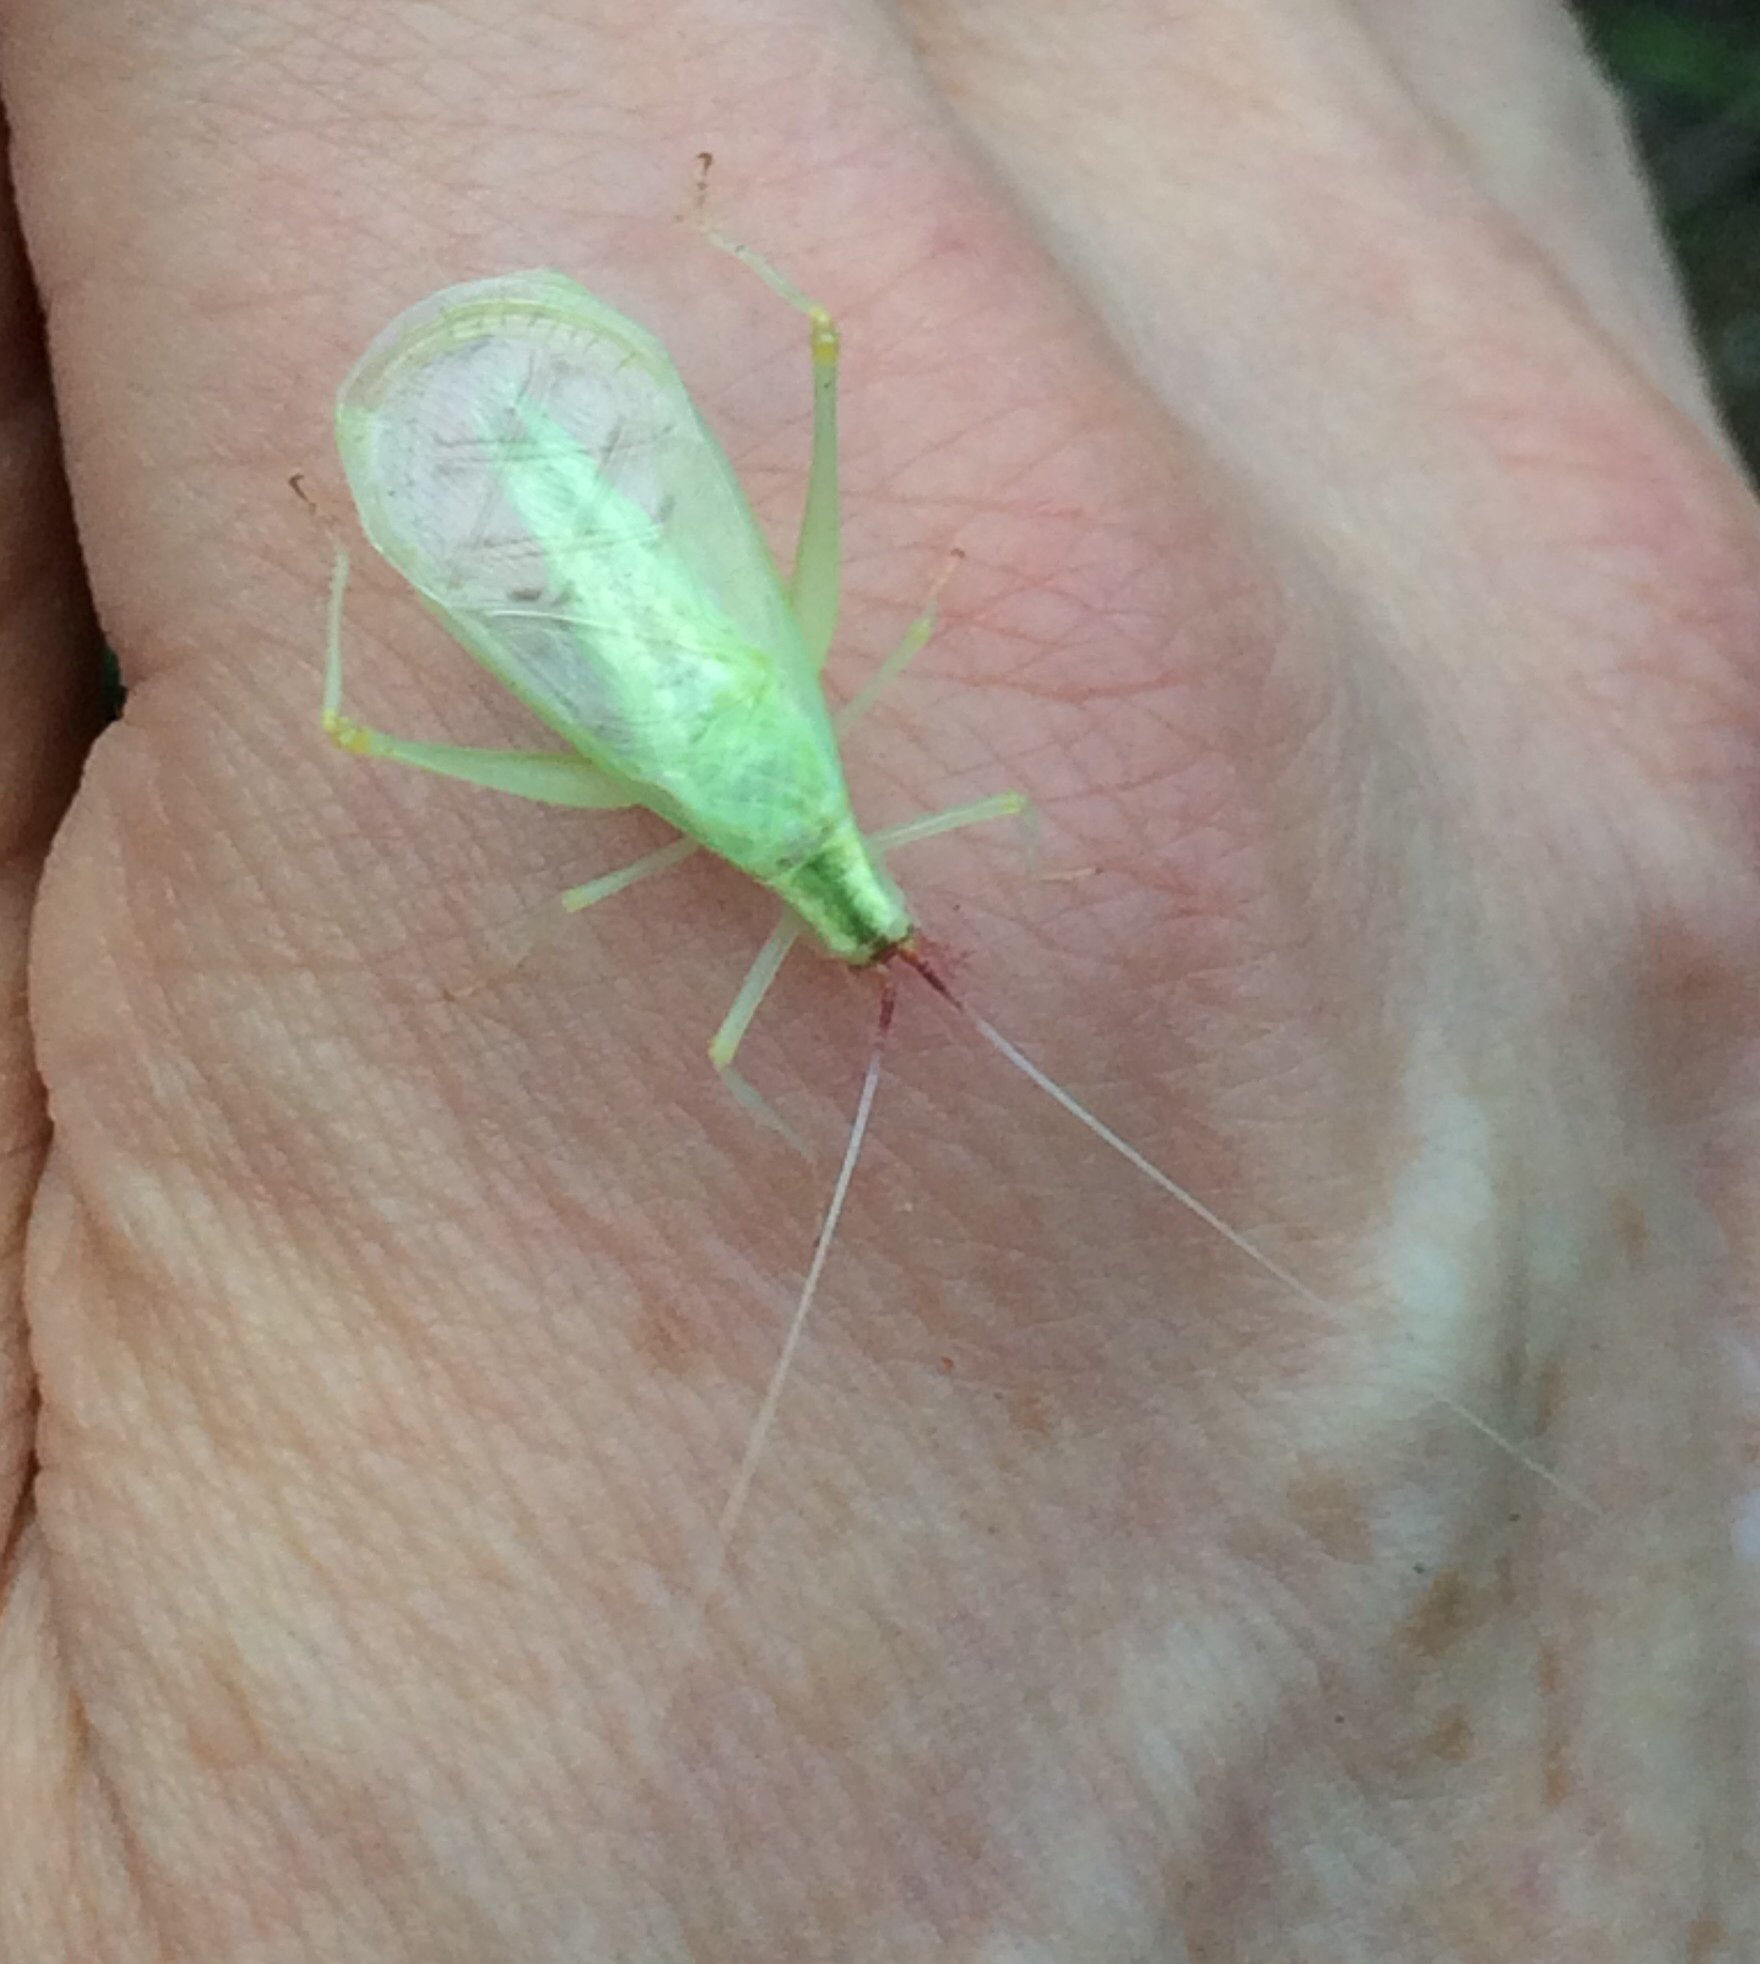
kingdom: Animalia
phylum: Arthropoda
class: Insecta
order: Orthoptera
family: Gryllidae
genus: Oecanthus
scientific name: Oecanthus latipennis
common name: Broad-winged tree cricket
